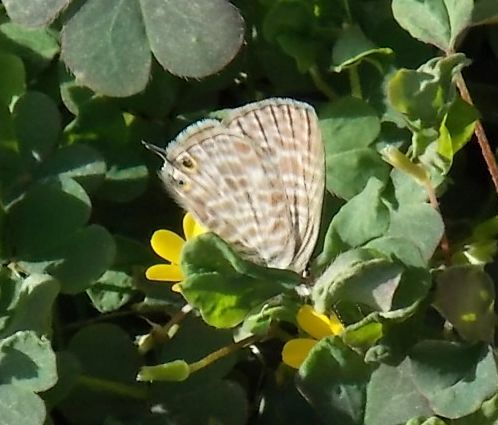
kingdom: Animalia
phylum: Arthropoda
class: Insecta
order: Lepidoptera
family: Lycaenidae
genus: Leptotes
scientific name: Leptotes pirithous
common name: Lang's short-tailed blue
